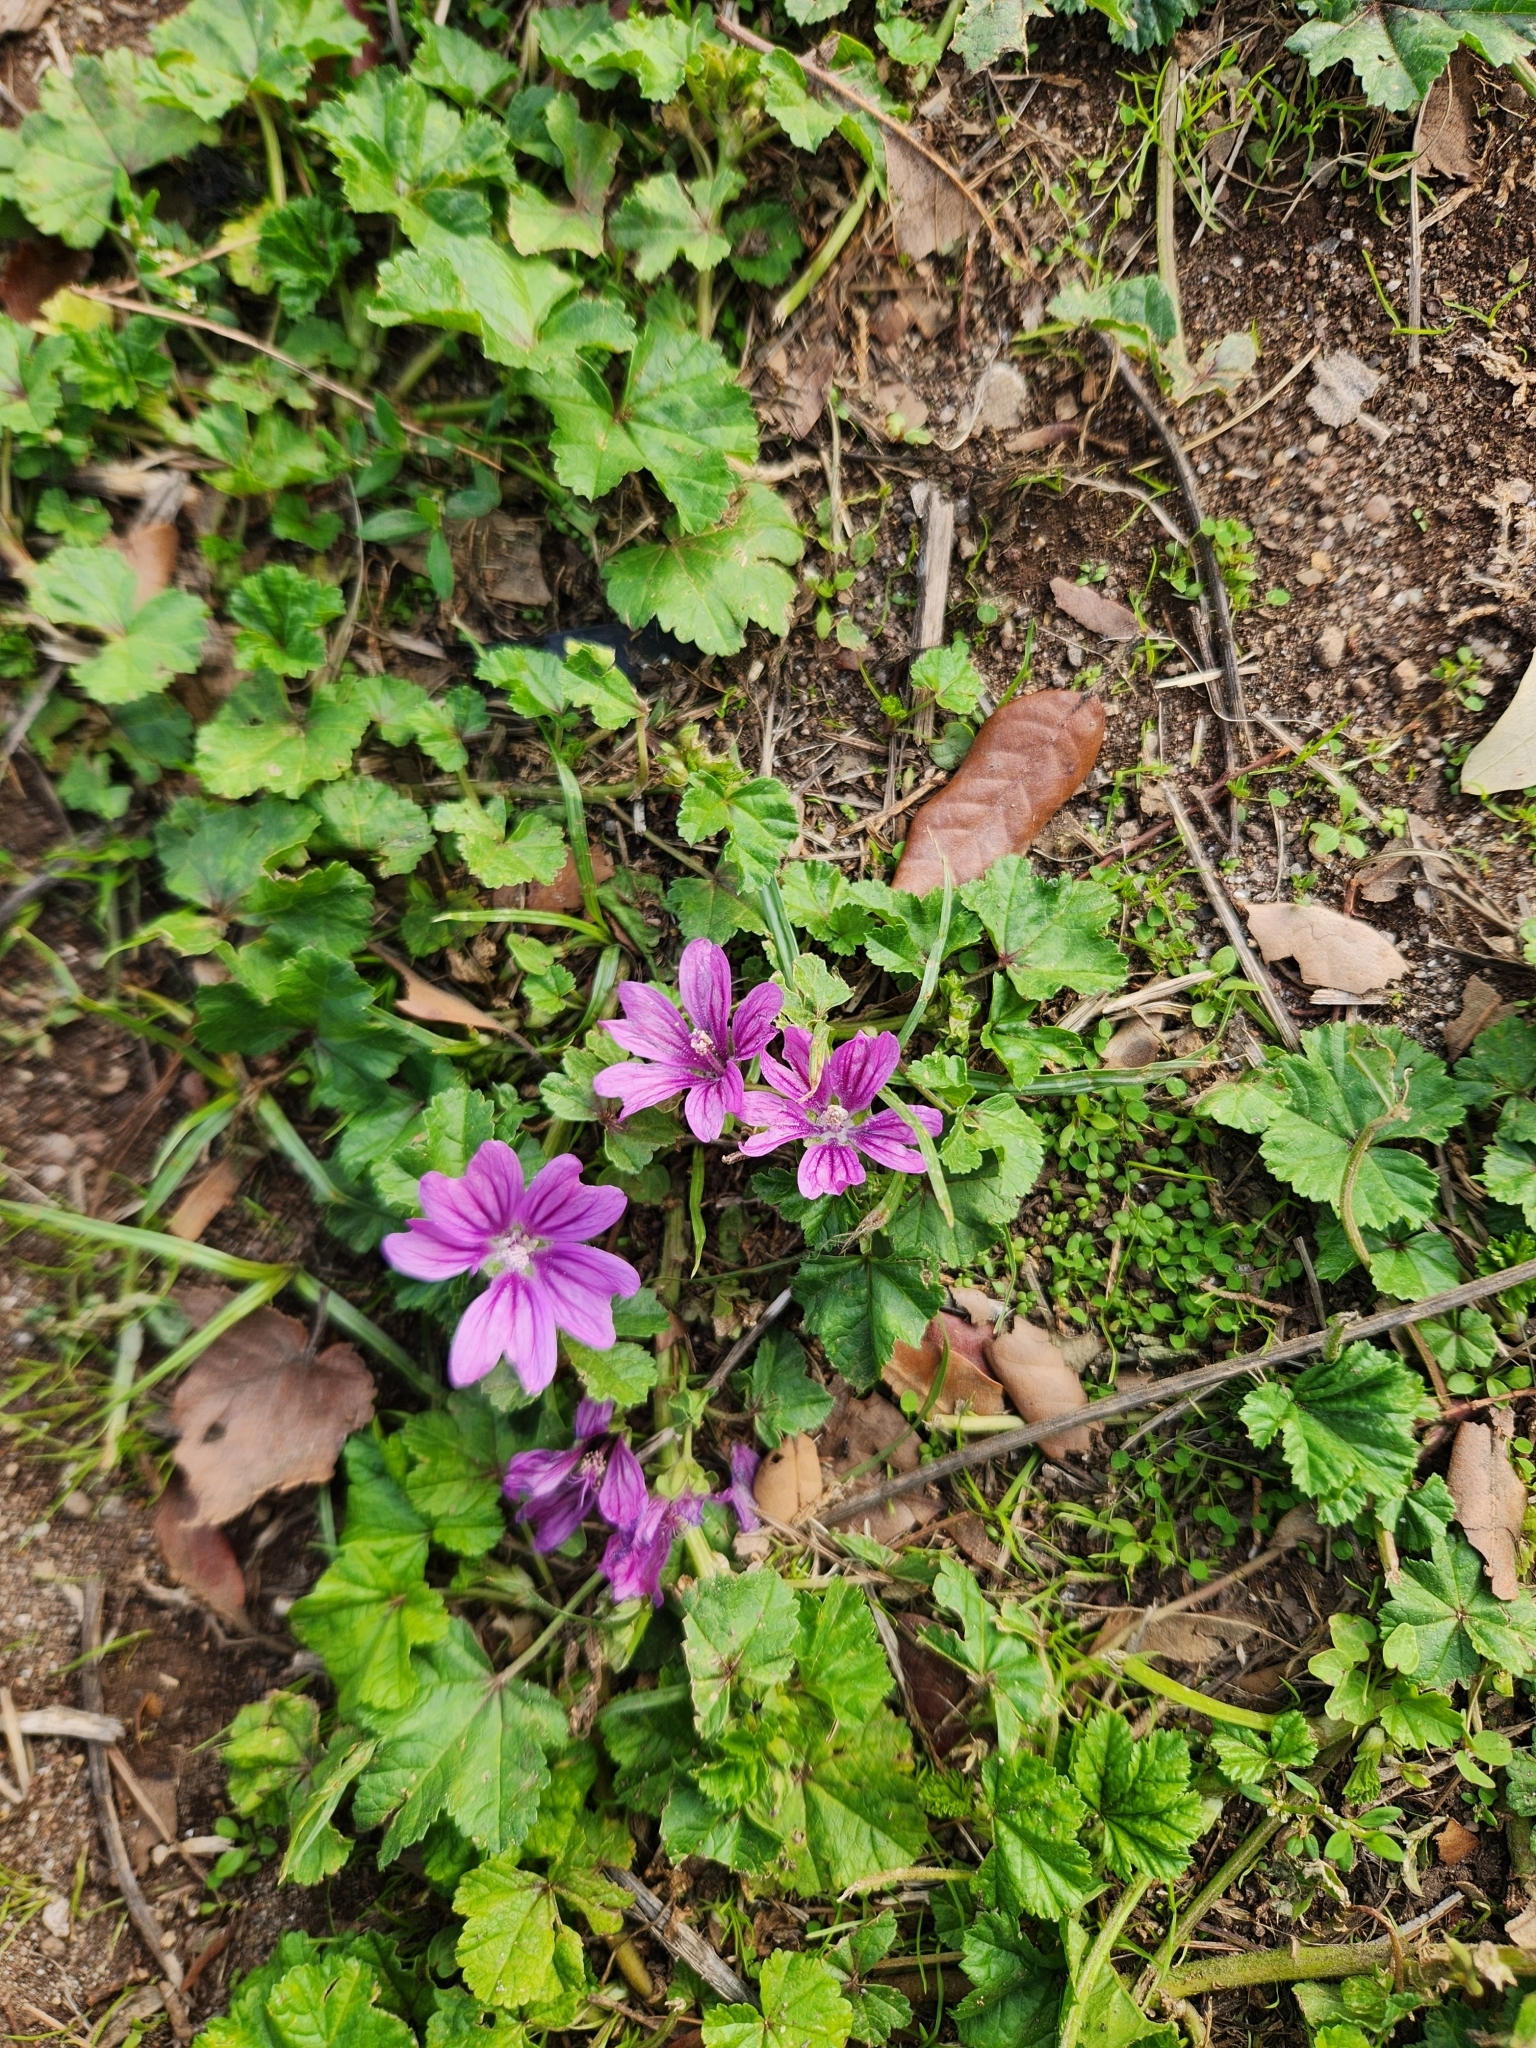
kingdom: Plantae
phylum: Tracheophyta
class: Magnoliopsida
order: Malvales
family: Malvaceae
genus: Malva
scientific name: Malva sylvestris
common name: Common mallow
